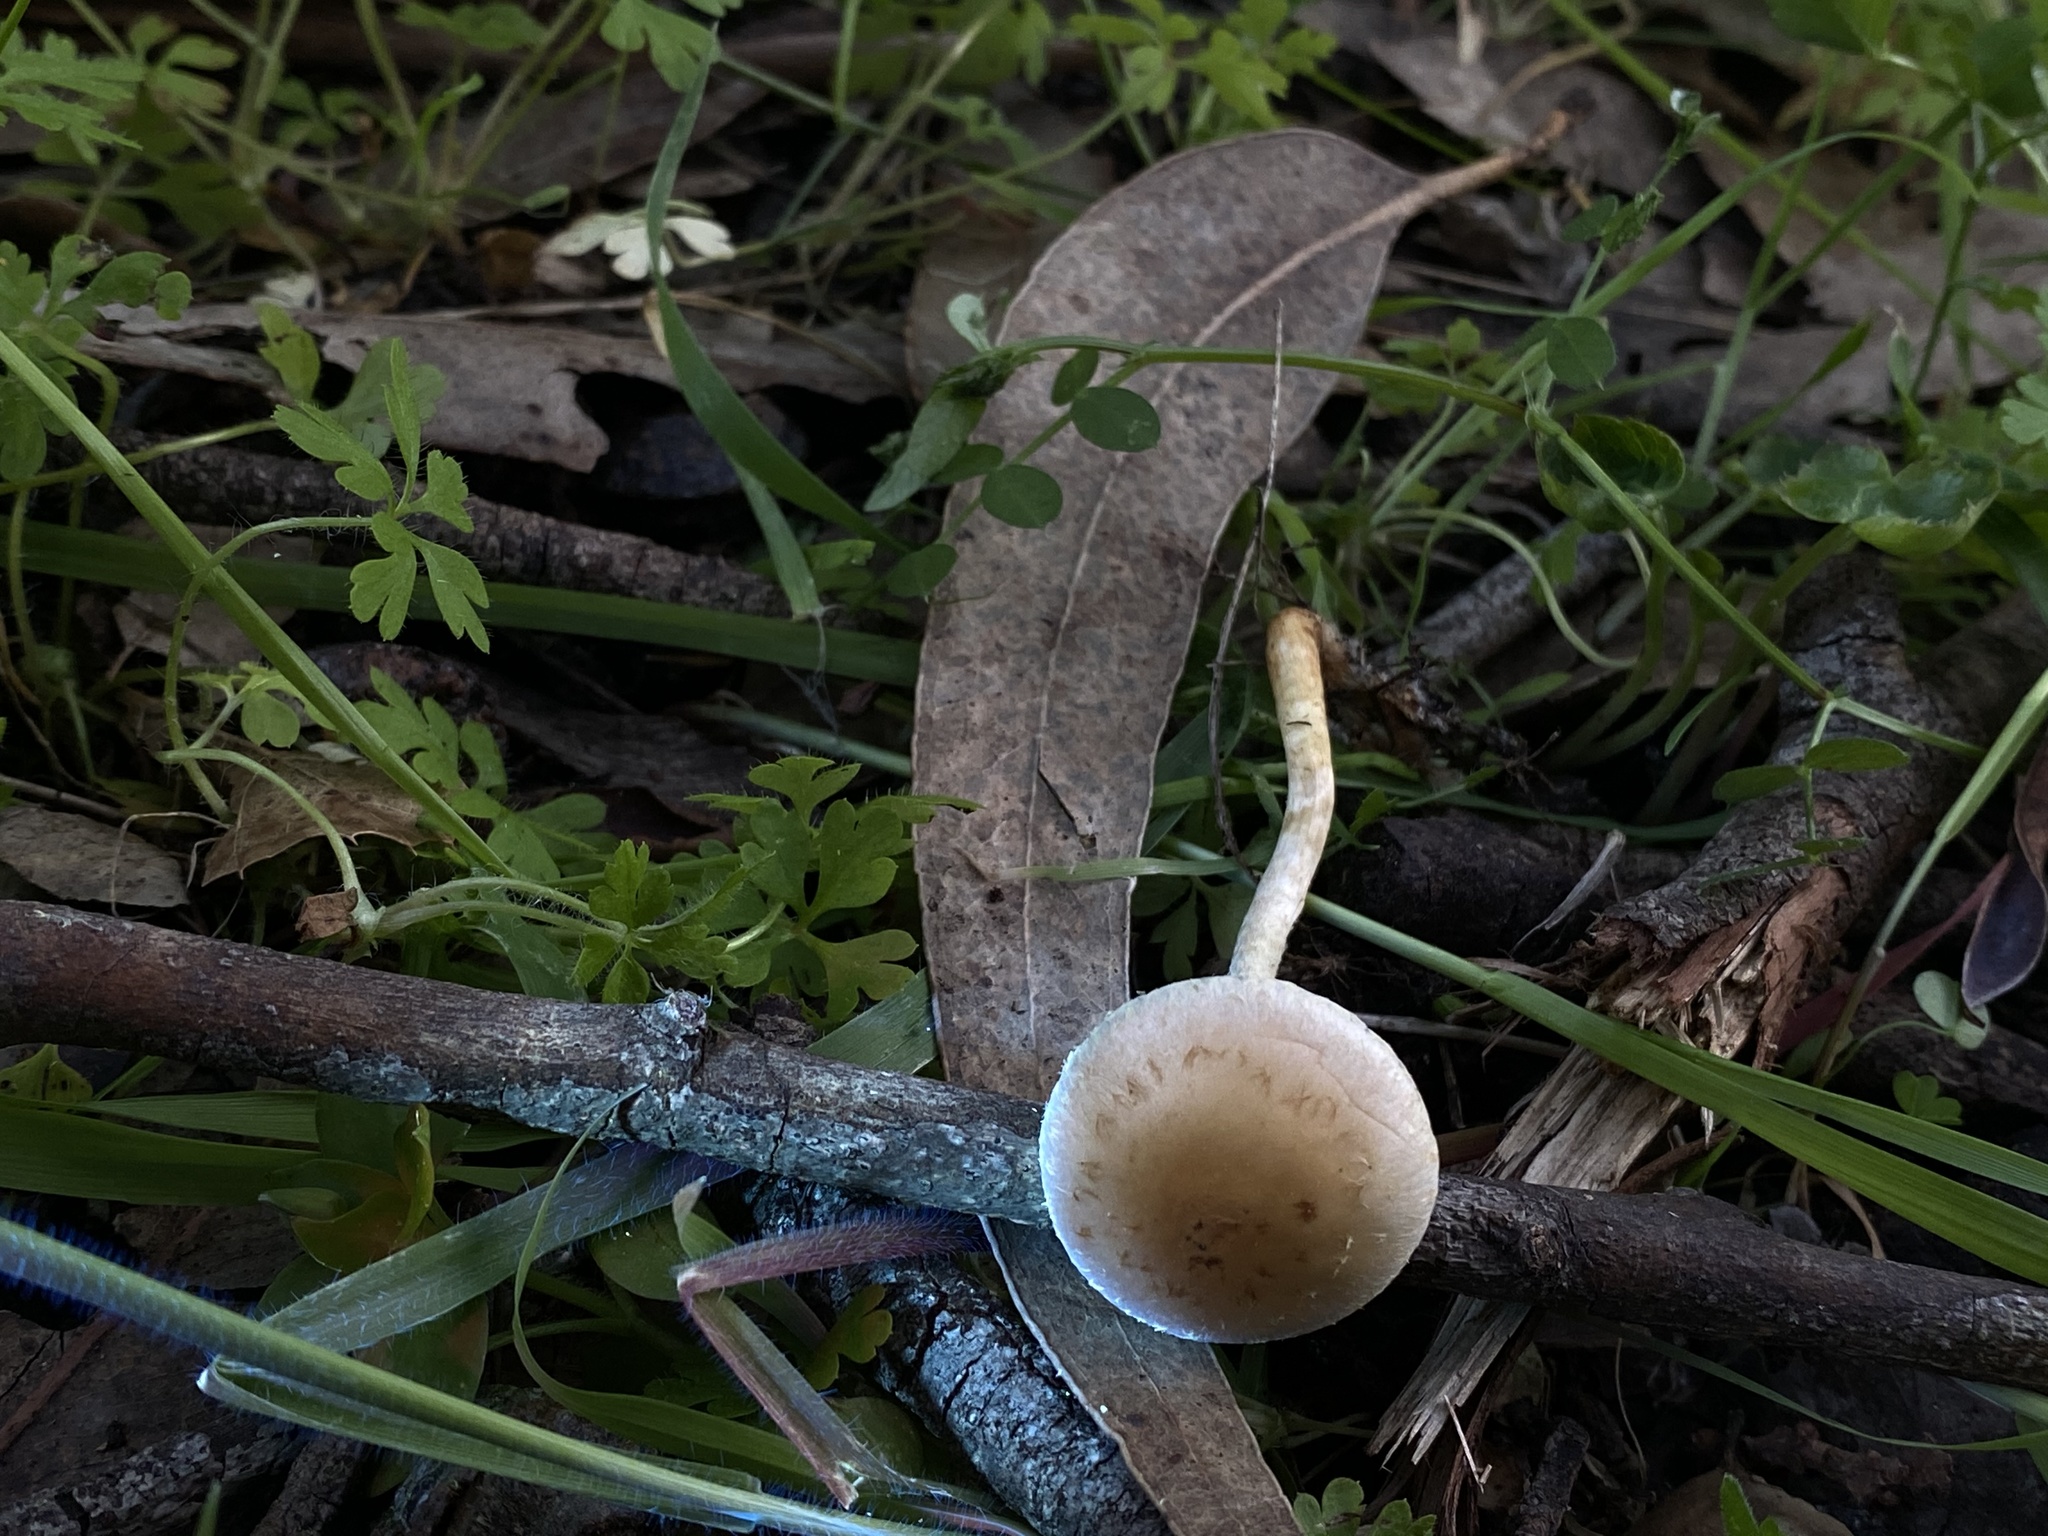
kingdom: Fungi
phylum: Basidiomycota
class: Agaricomycetes
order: Agaricales
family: Strophariaceae
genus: Leratiomyces
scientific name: Leratiomyces percevalii
